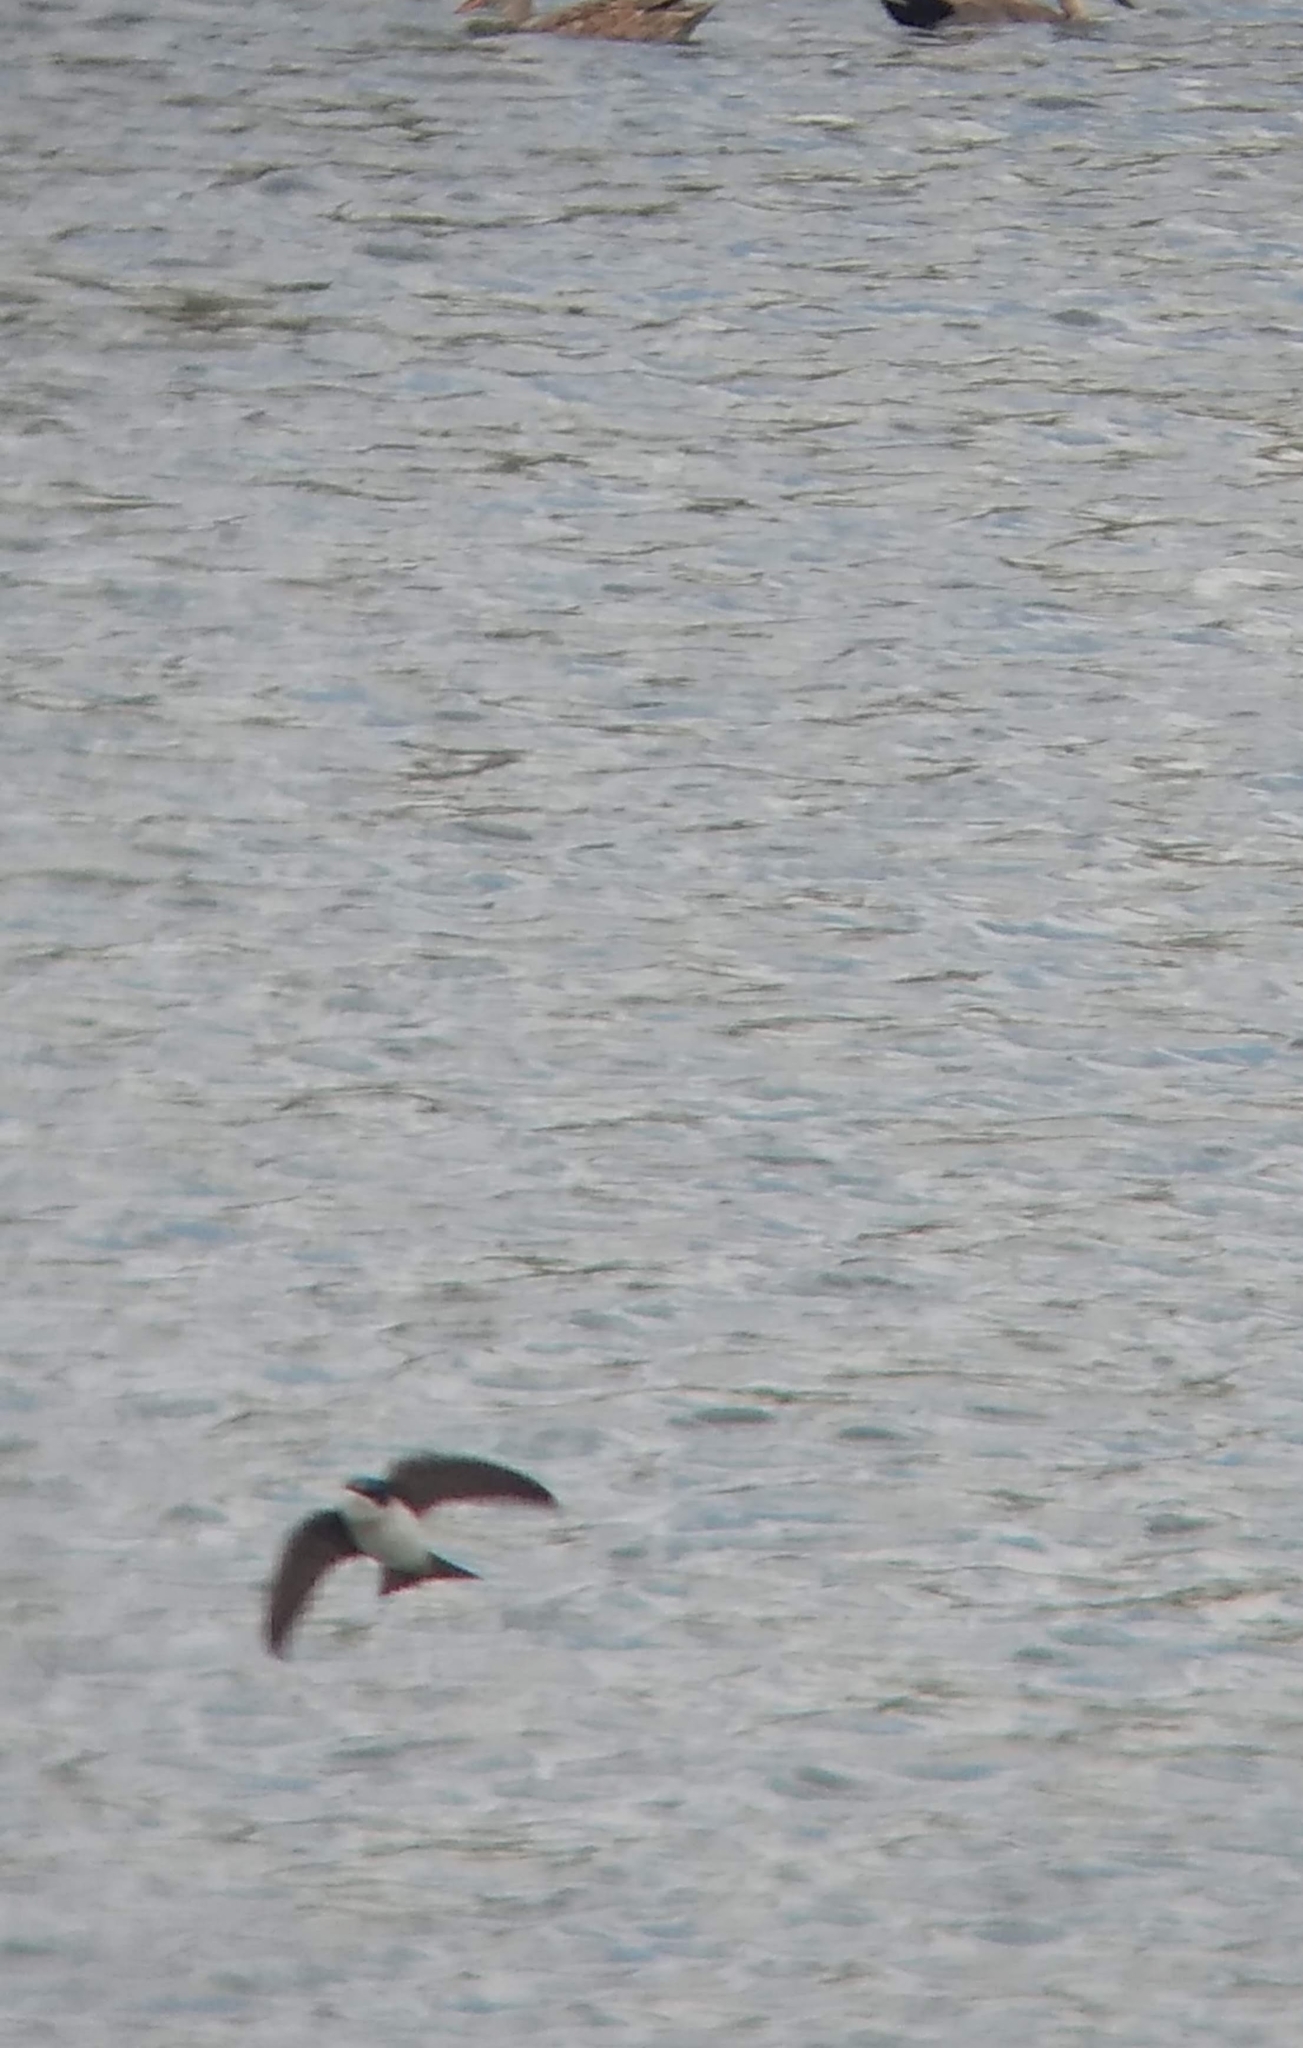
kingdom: Animalia
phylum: Chordata
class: Aves
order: Passeriformes
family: Hirundinidae
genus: Tachycineta
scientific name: Tachycineta bicolor
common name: Tree swallow
